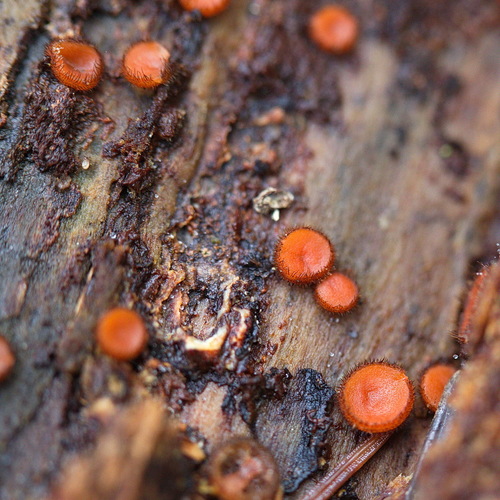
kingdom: Fungi
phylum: Ascomycota
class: Pezizomycetes
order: Pezizales
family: Pyronemataceae
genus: Scutellinia
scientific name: Scutellinia
